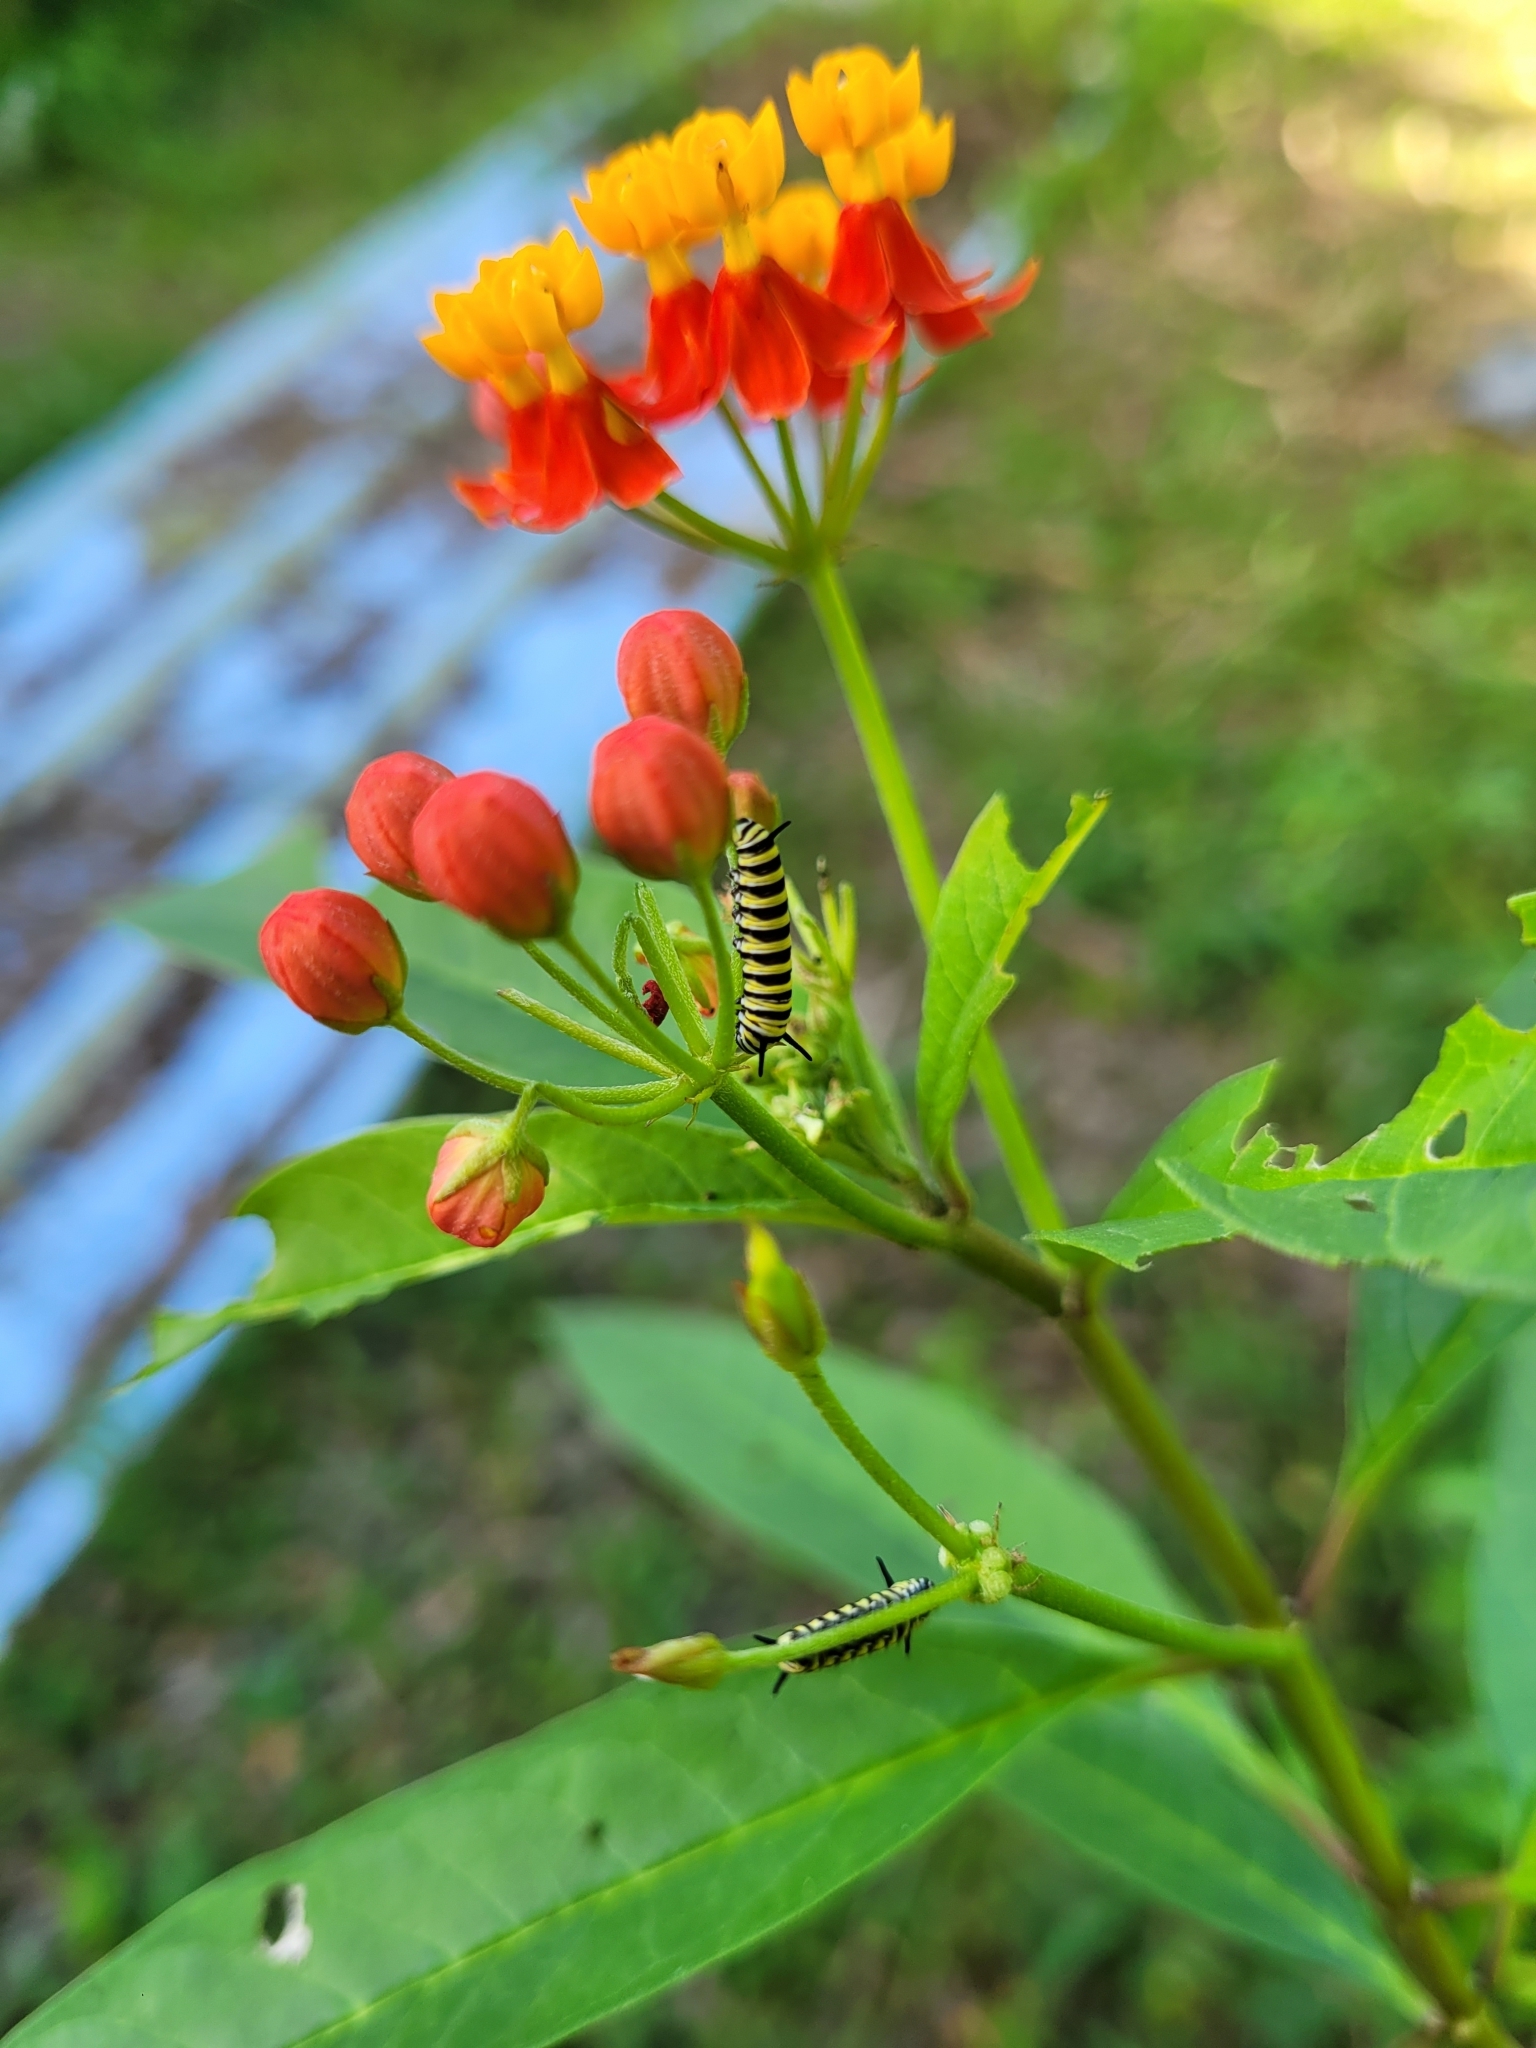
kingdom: Animalia
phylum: Arthropoda
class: Insecta
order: Lepidoptera
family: Nymphalidae
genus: Danaus
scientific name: Danaus plexippus
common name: Monarch
